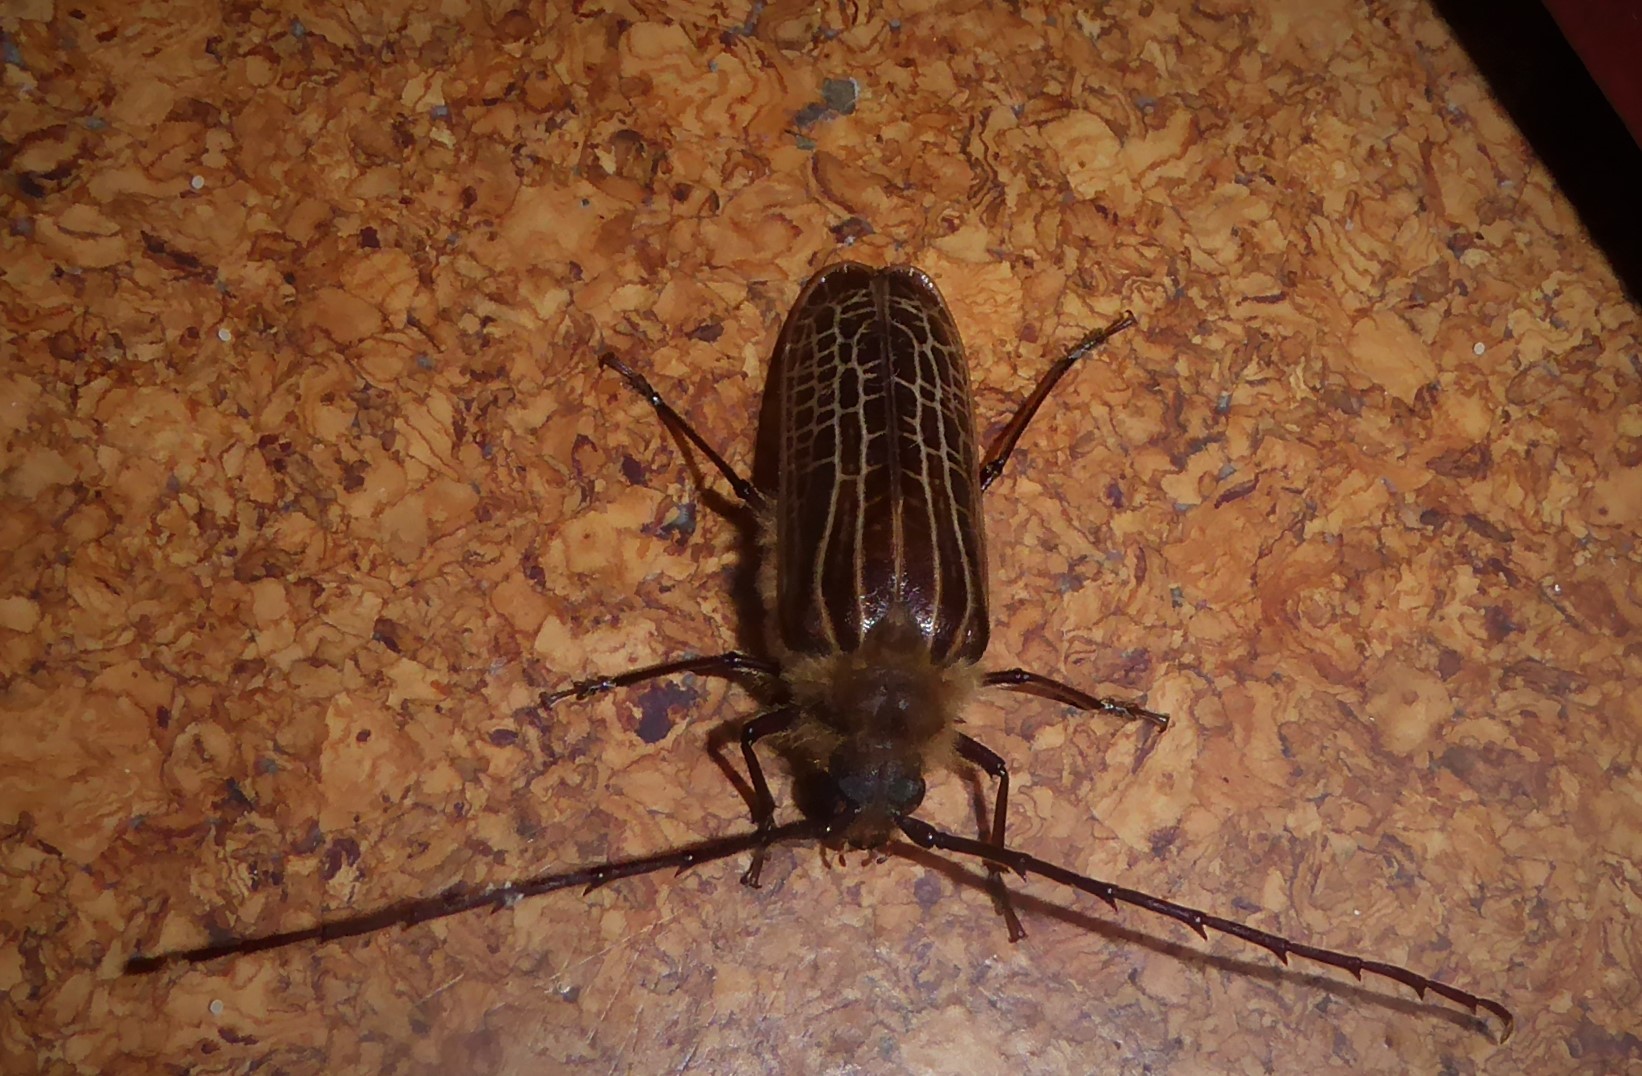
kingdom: Animalia
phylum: Arthropoda
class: Insecta
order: Coleoptera
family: Cerambycidae
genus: Prionoplus
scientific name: Prionoplus reticularis
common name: Huhu beetle
